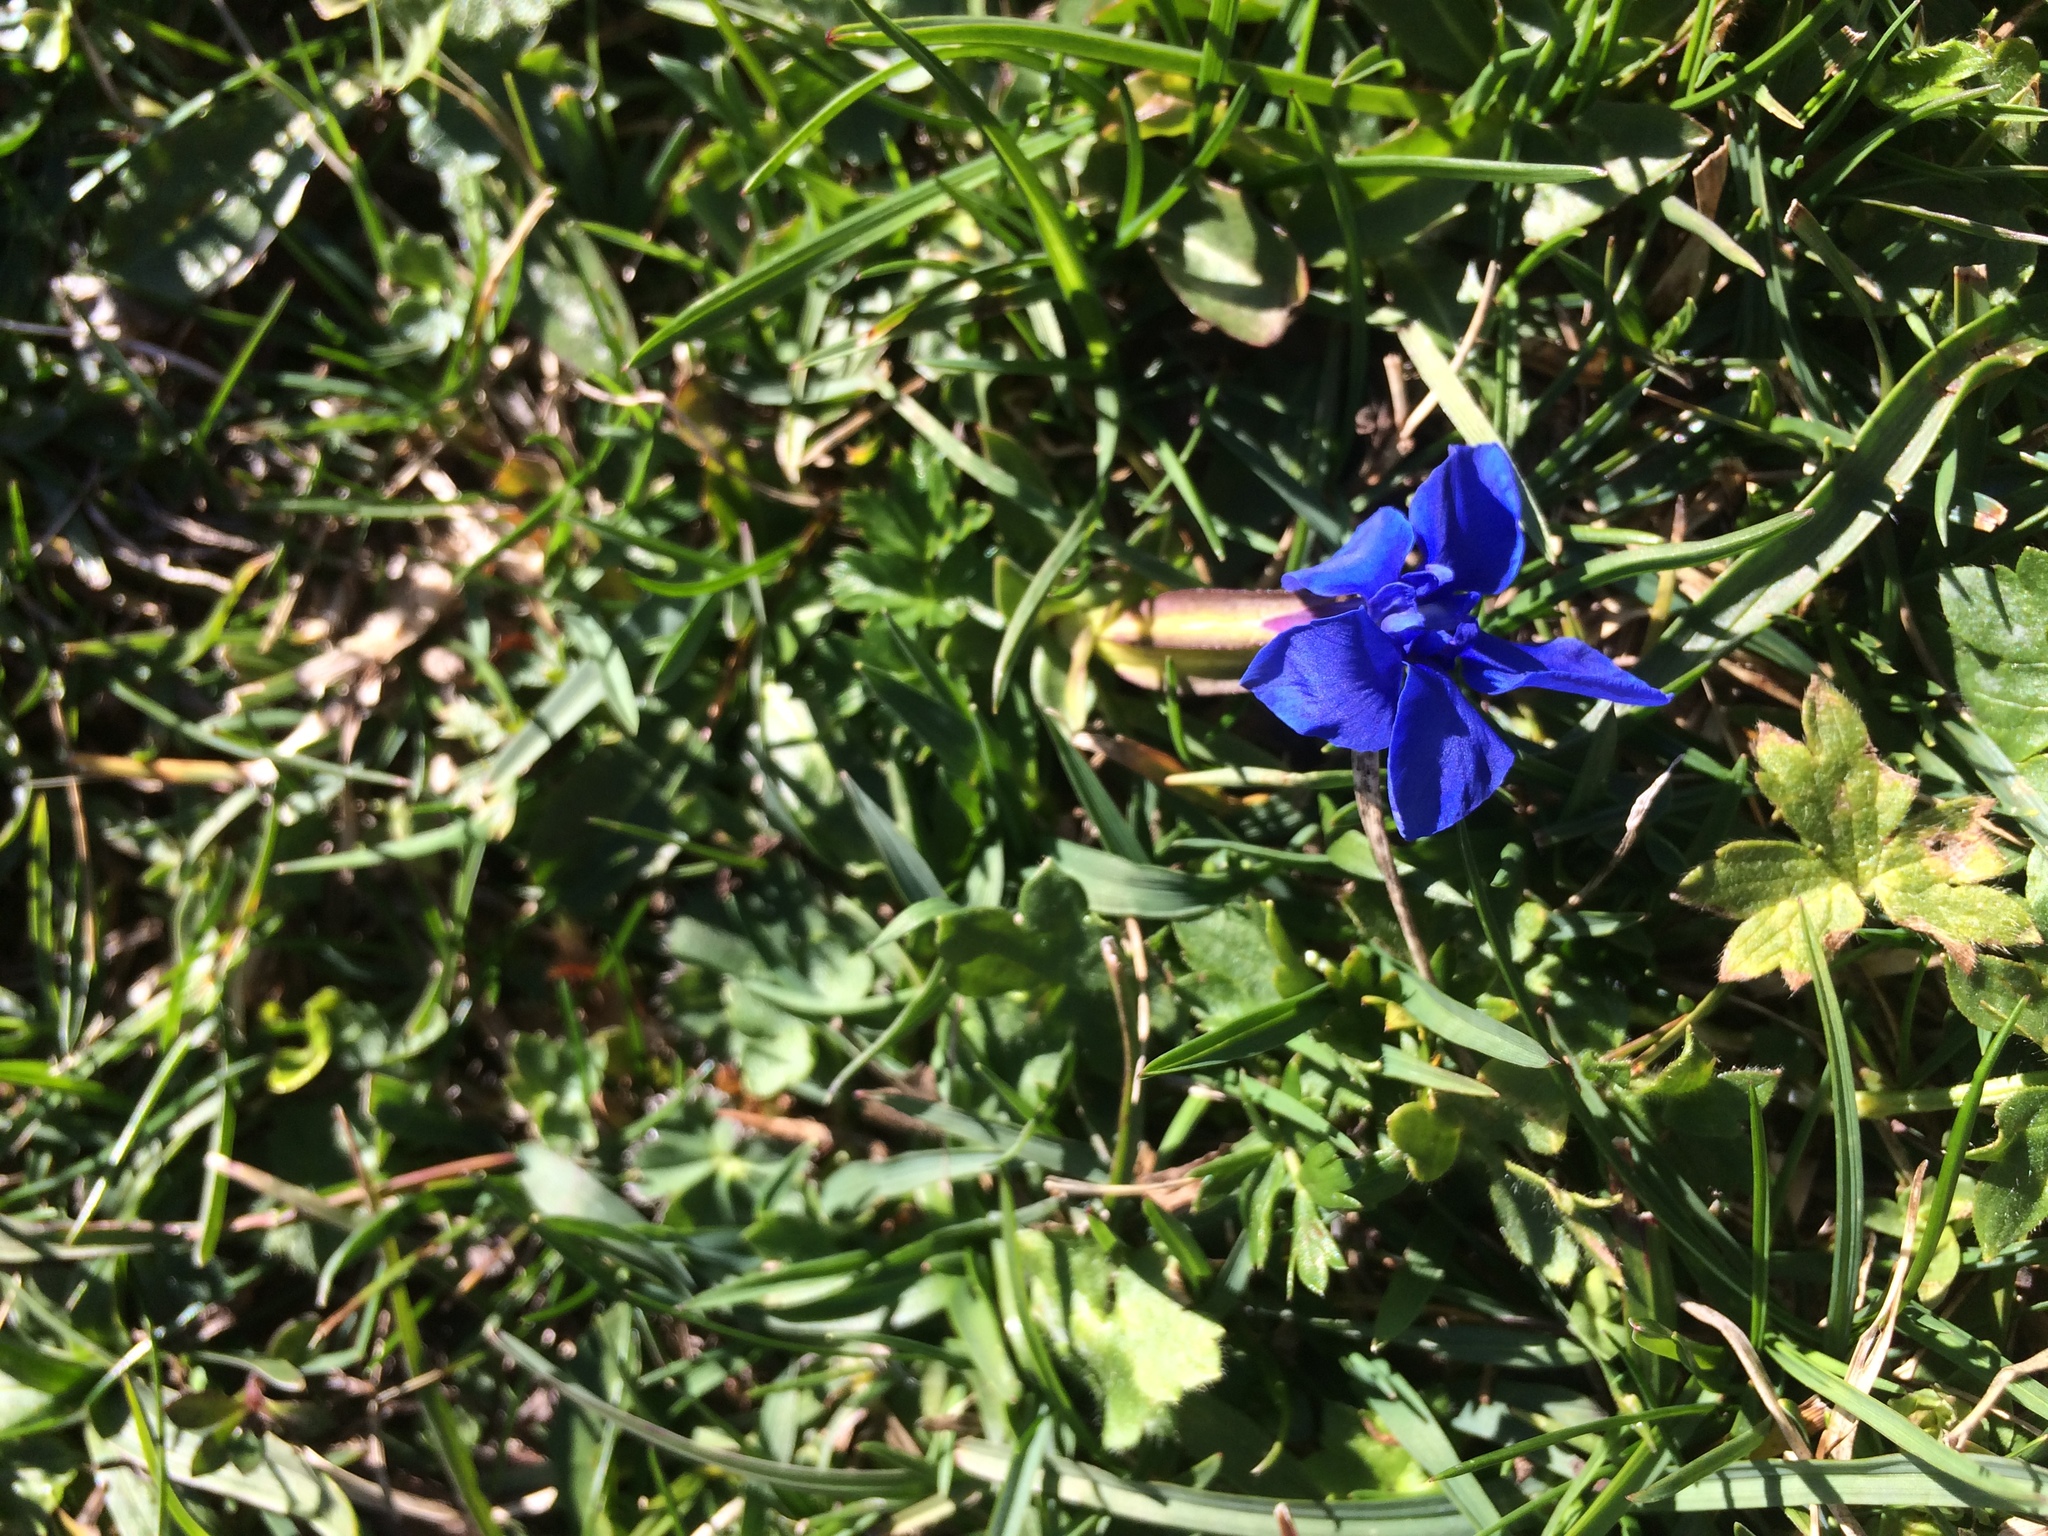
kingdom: Plantae
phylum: Tracheophyta
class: Magnoliopsida
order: Gentianales
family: Gentianaceae
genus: Gentiana
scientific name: Gentiana verna
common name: Spring gentian
